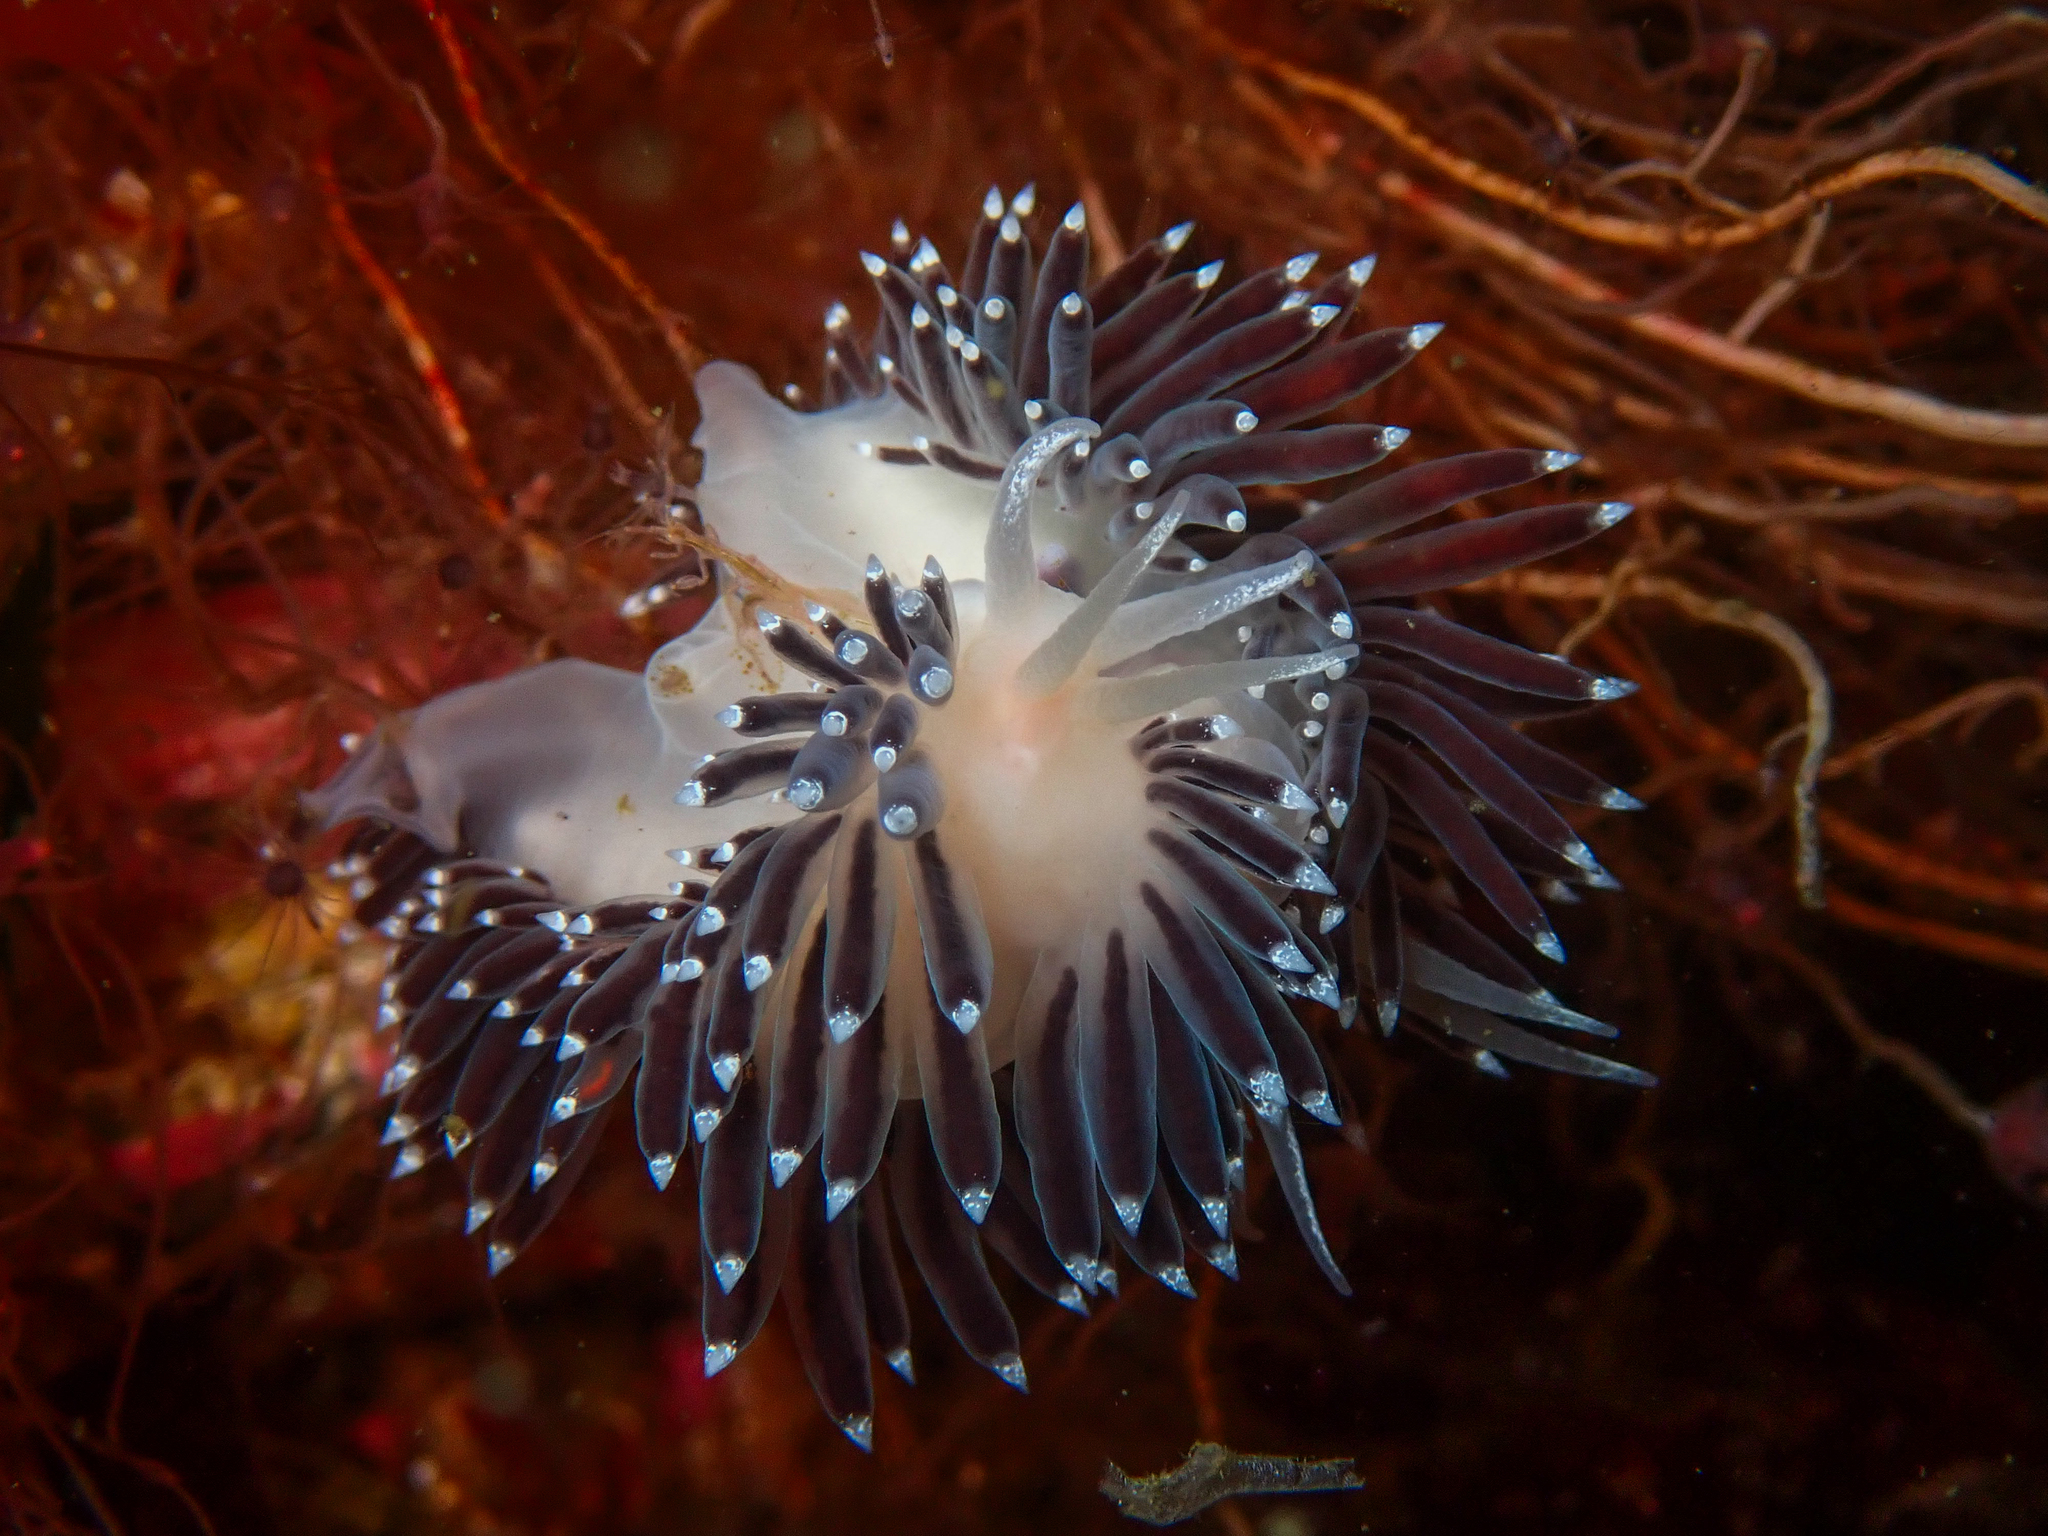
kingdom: Animalia
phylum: Mollusca
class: Gastropoda
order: Nudibranchia
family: Coryphellidae
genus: Coryphella
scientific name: Coryphella browni
